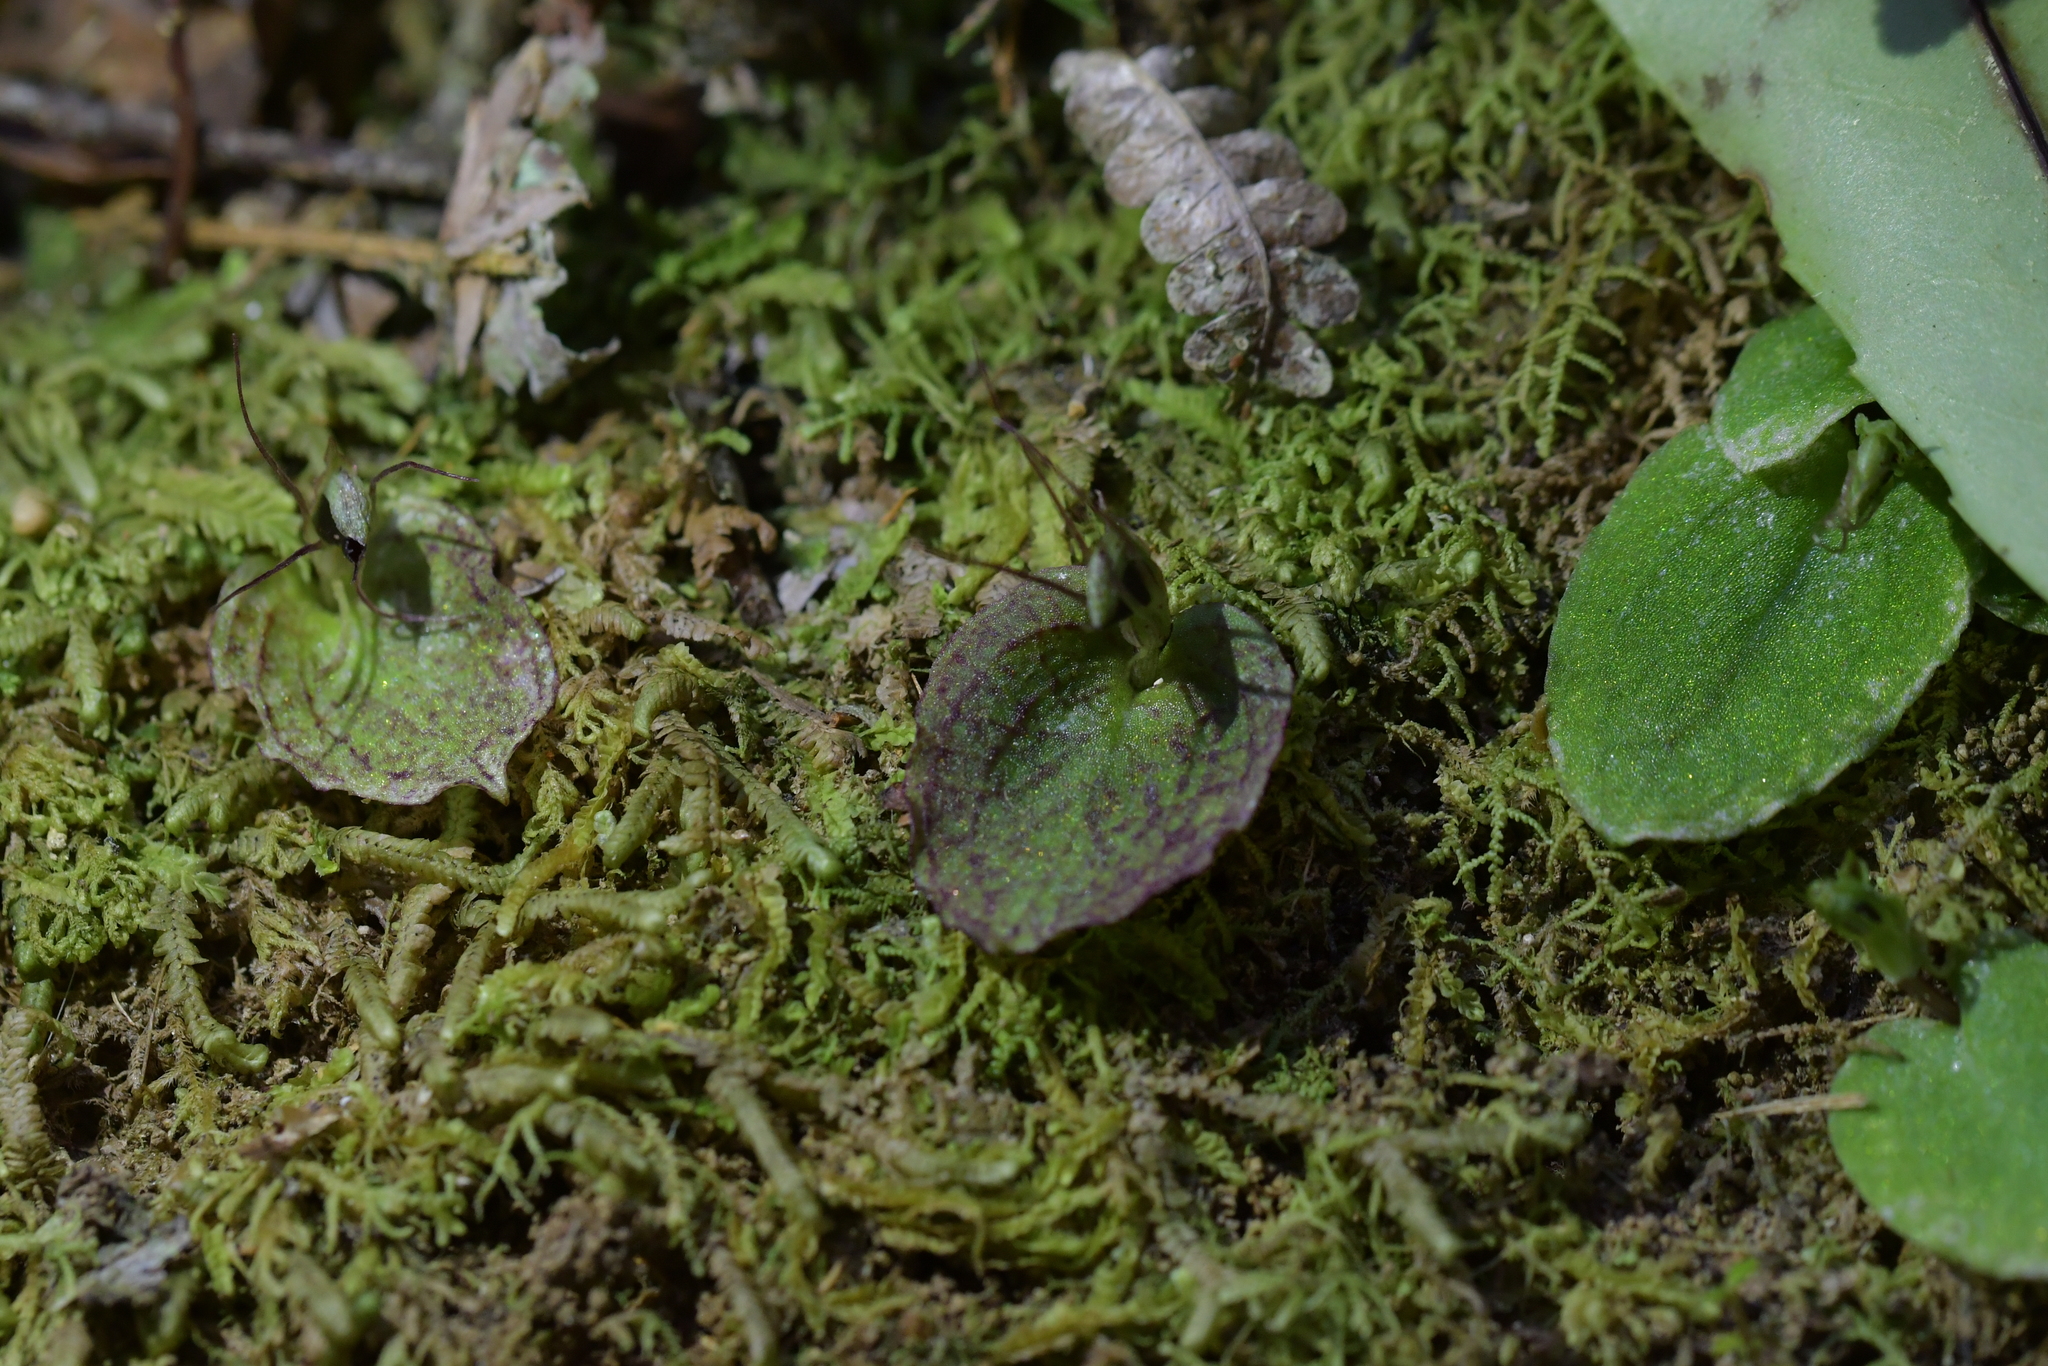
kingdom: Plantae
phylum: Tracheophyta
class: Liliopsida
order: Asparagales
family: Orchidaceae
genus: Corybas
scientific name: Corybas oblongus
